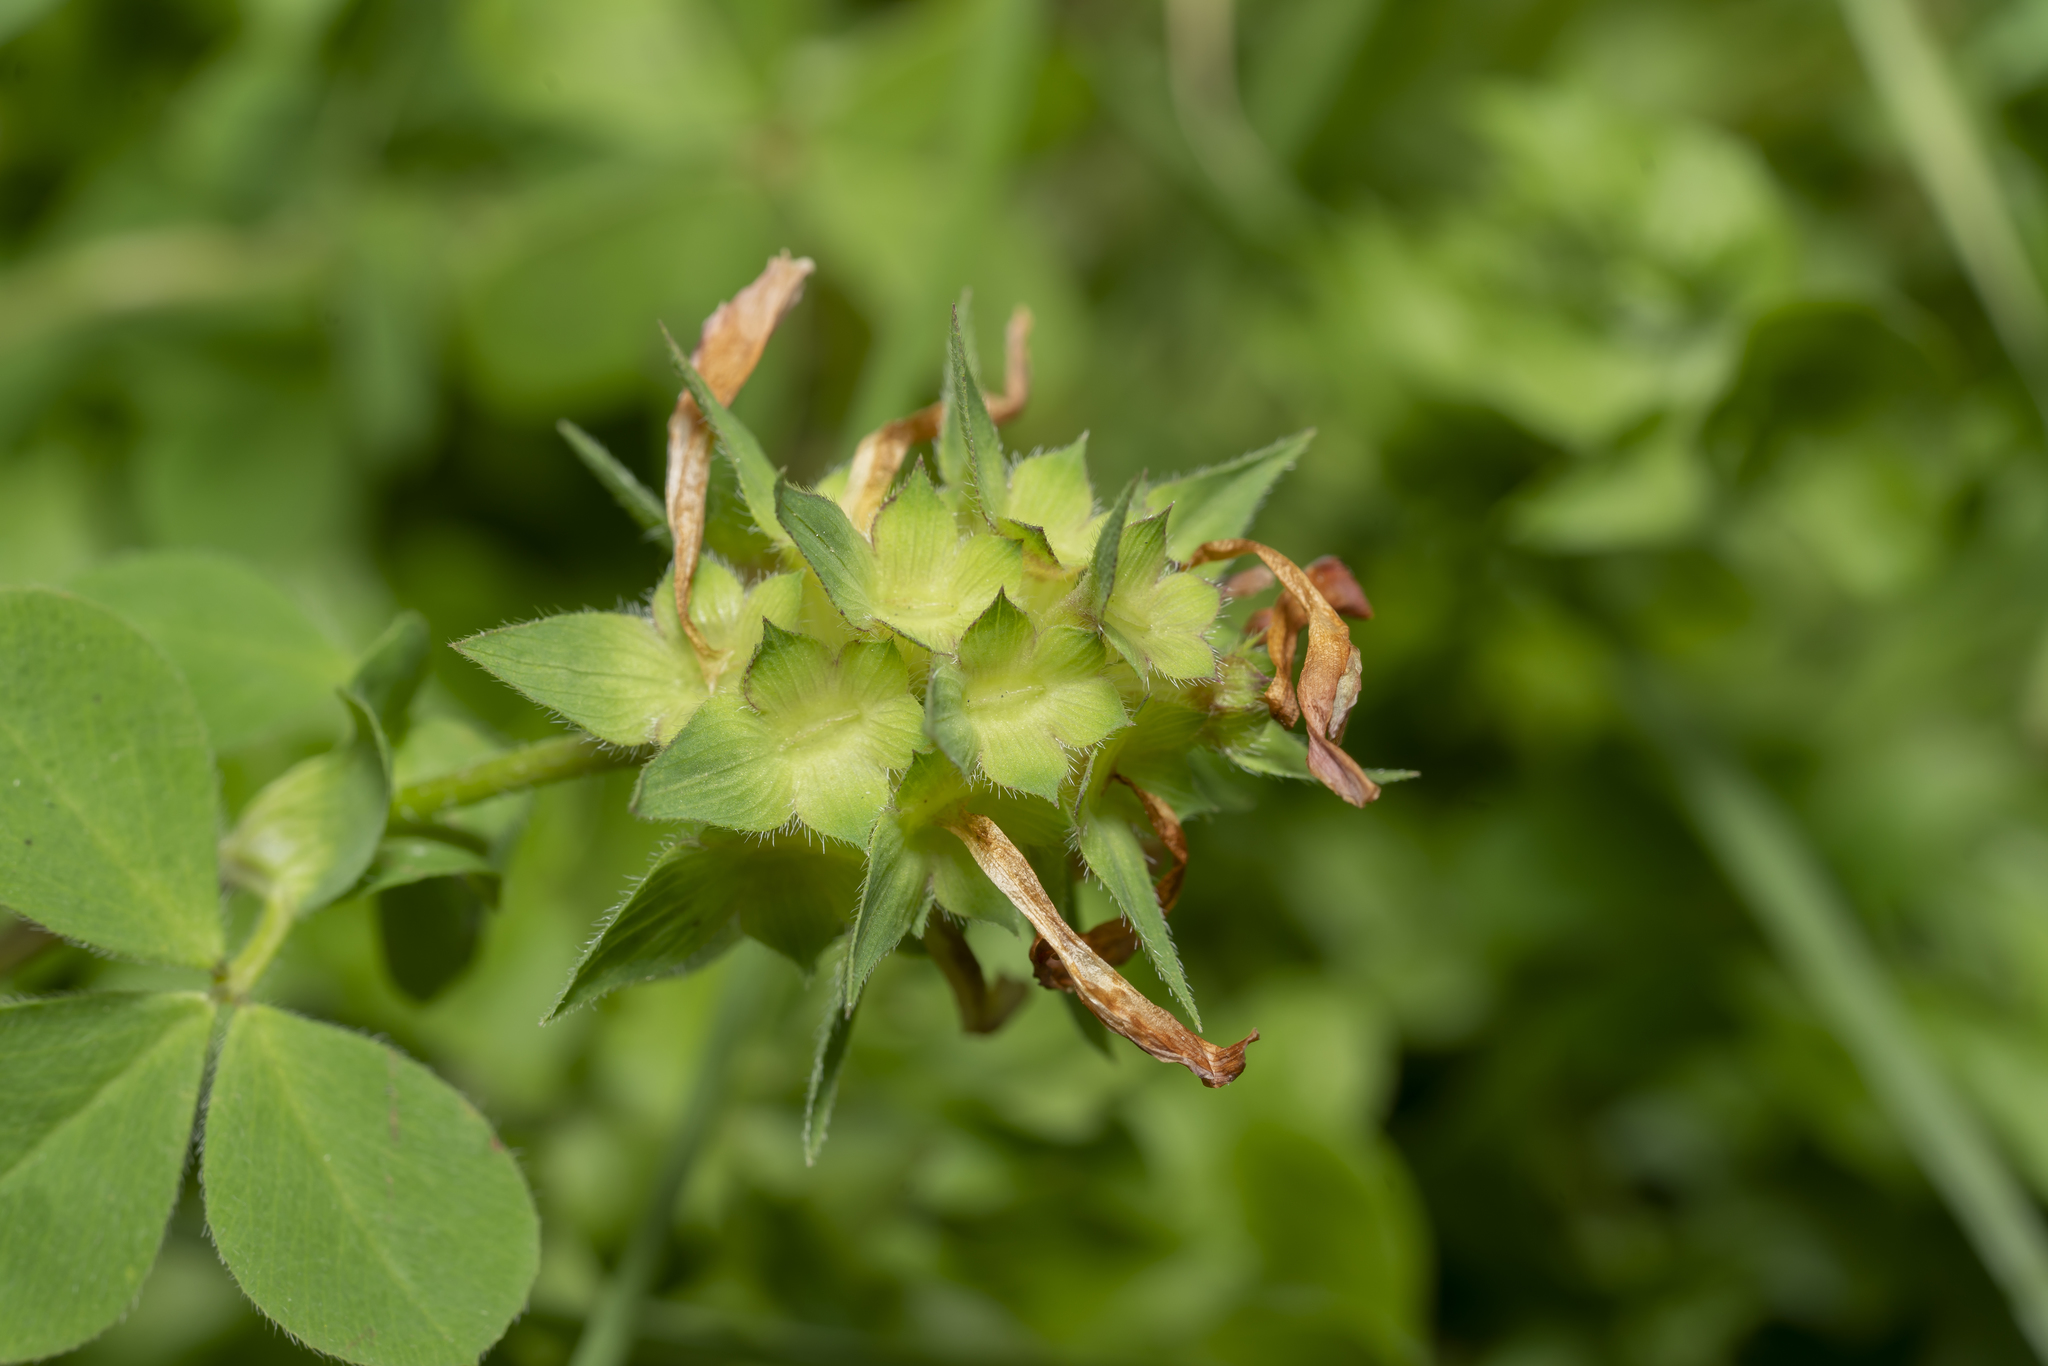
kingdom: Plantae
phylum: Tracheophyta
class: Magnoliopsida
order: Fabales
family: Fabaceae
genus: Trifolium
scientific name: Trifolium clypeatum
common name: Shield clover
